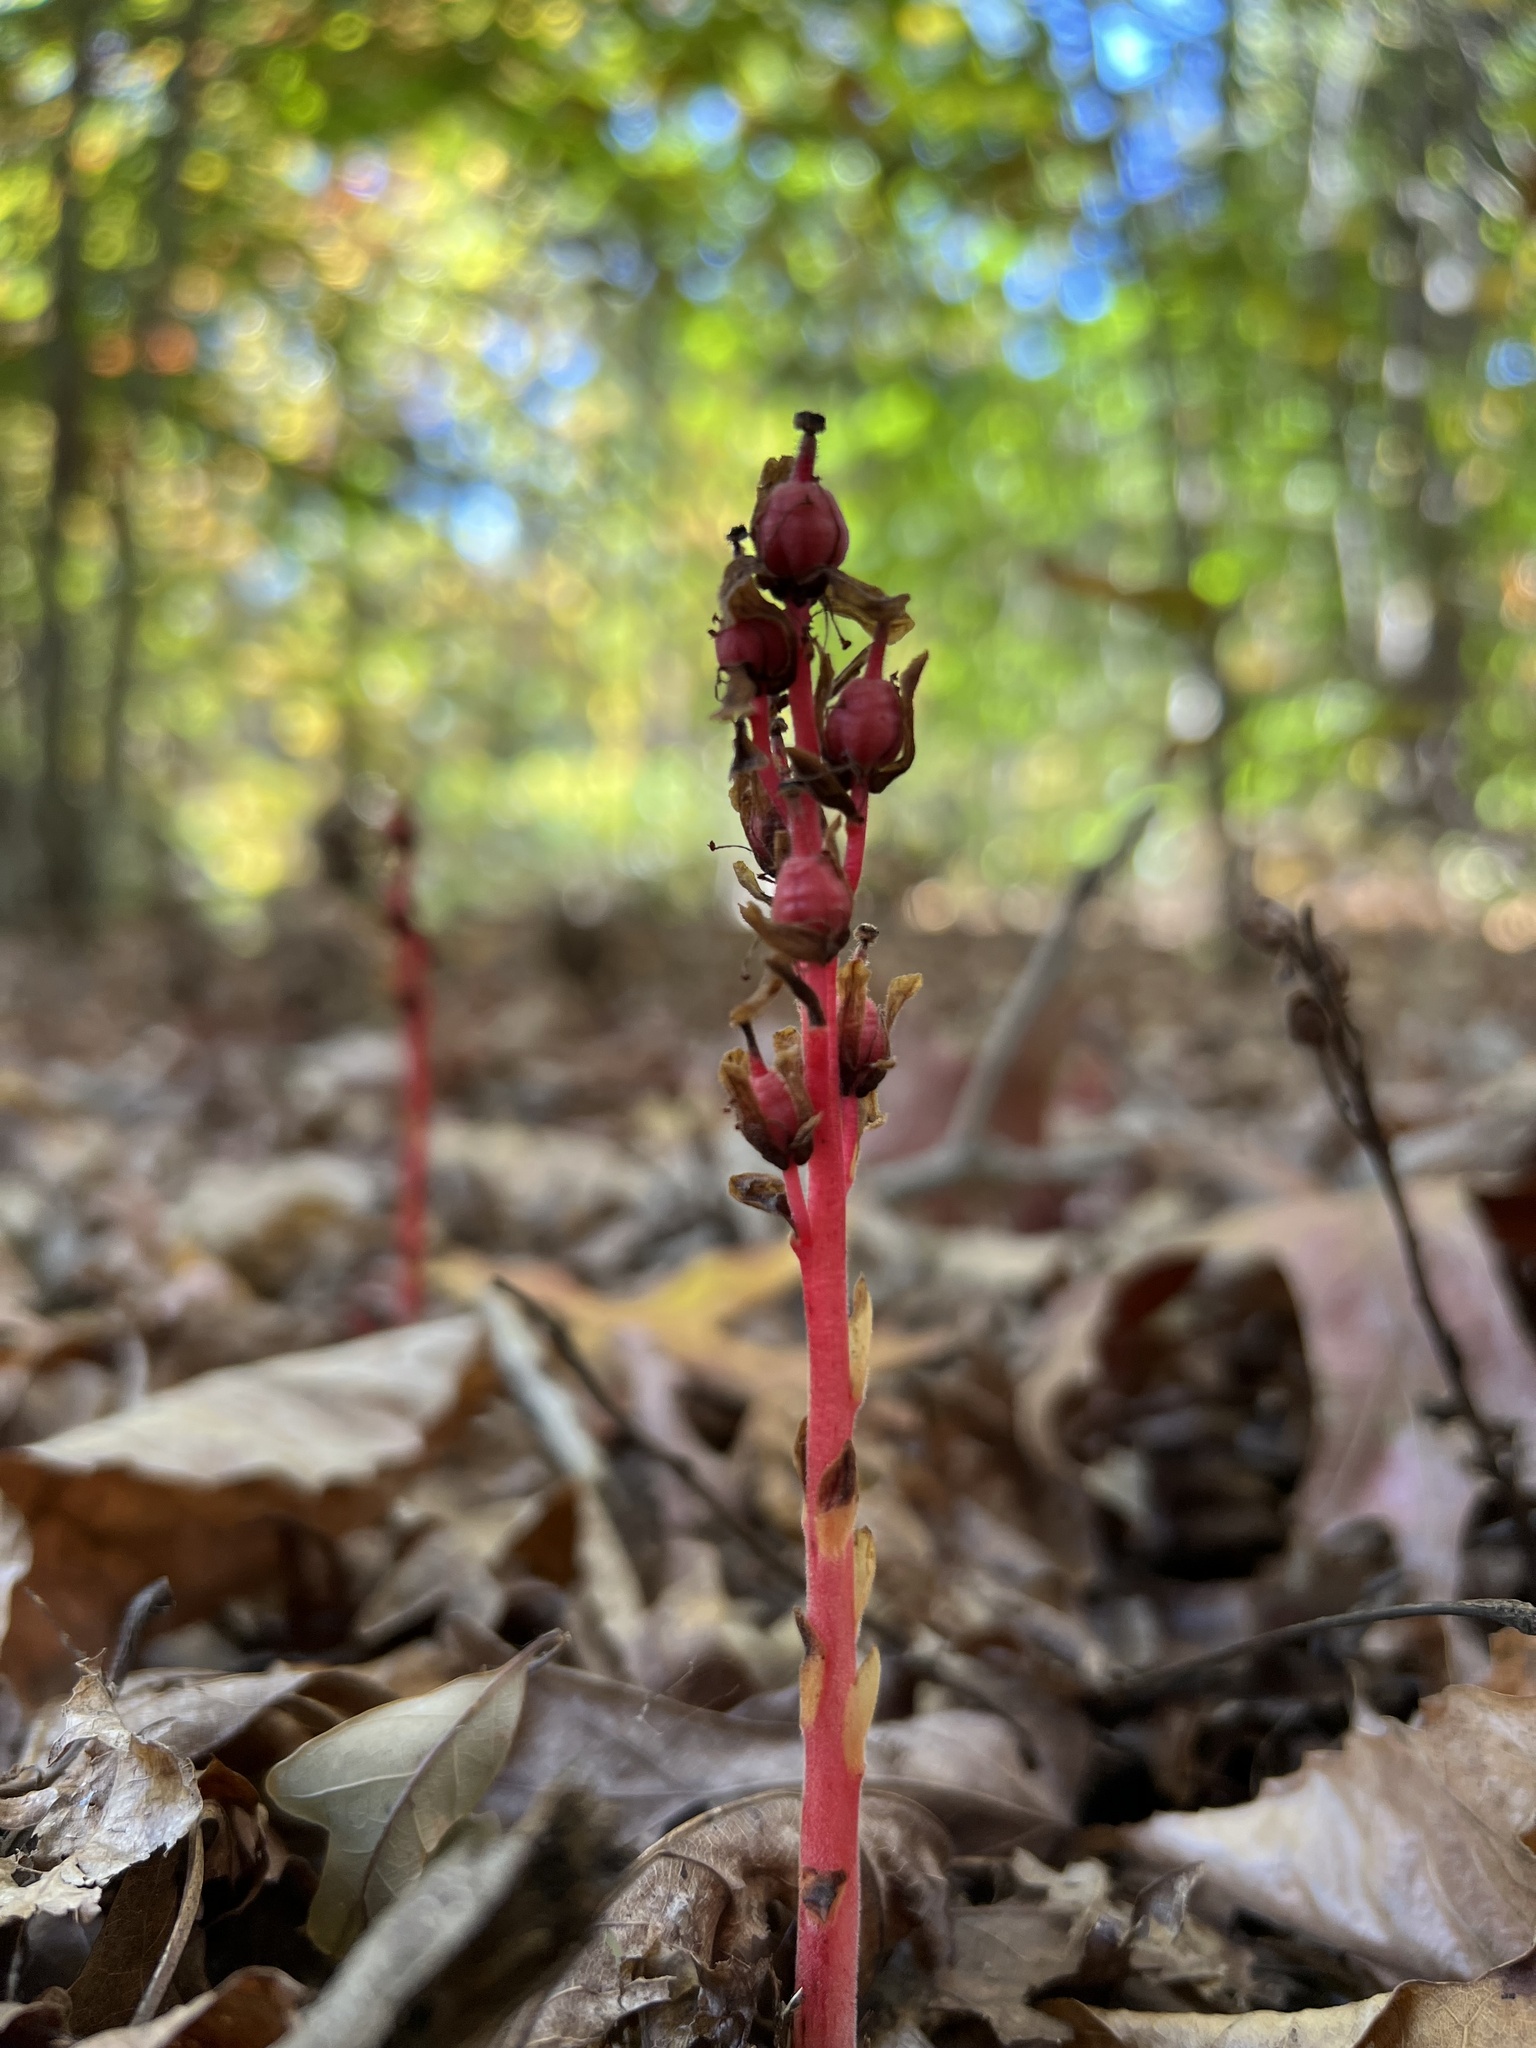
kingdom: Plantae
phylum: Tracheophyta
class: Magnoliopsida
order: Ericales
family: Ericaceae
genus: Hypopitys
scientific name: Hypopitys monotropa
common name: Yellow bird's-nest
